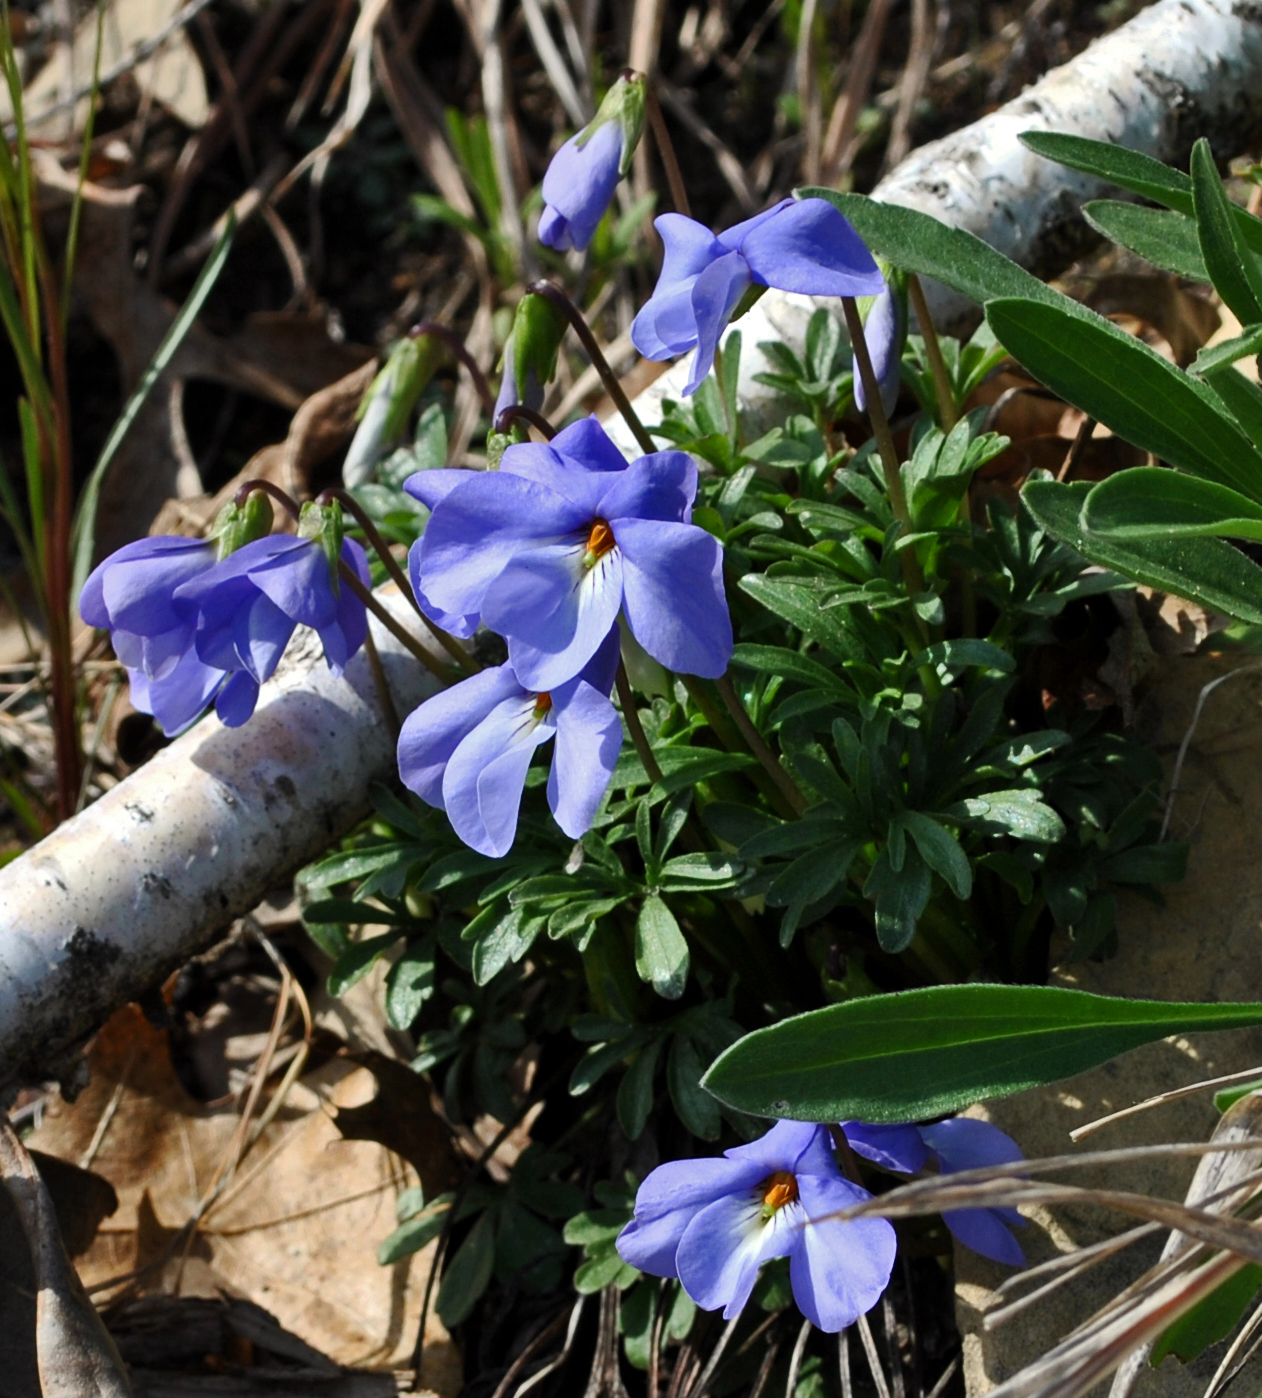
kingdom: Plantae
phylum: Tracheophyta
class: Magnoliopsida
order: Malpighiales
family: Violaceae
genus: Viola
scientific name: Viola pedata
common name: Pansy violet
